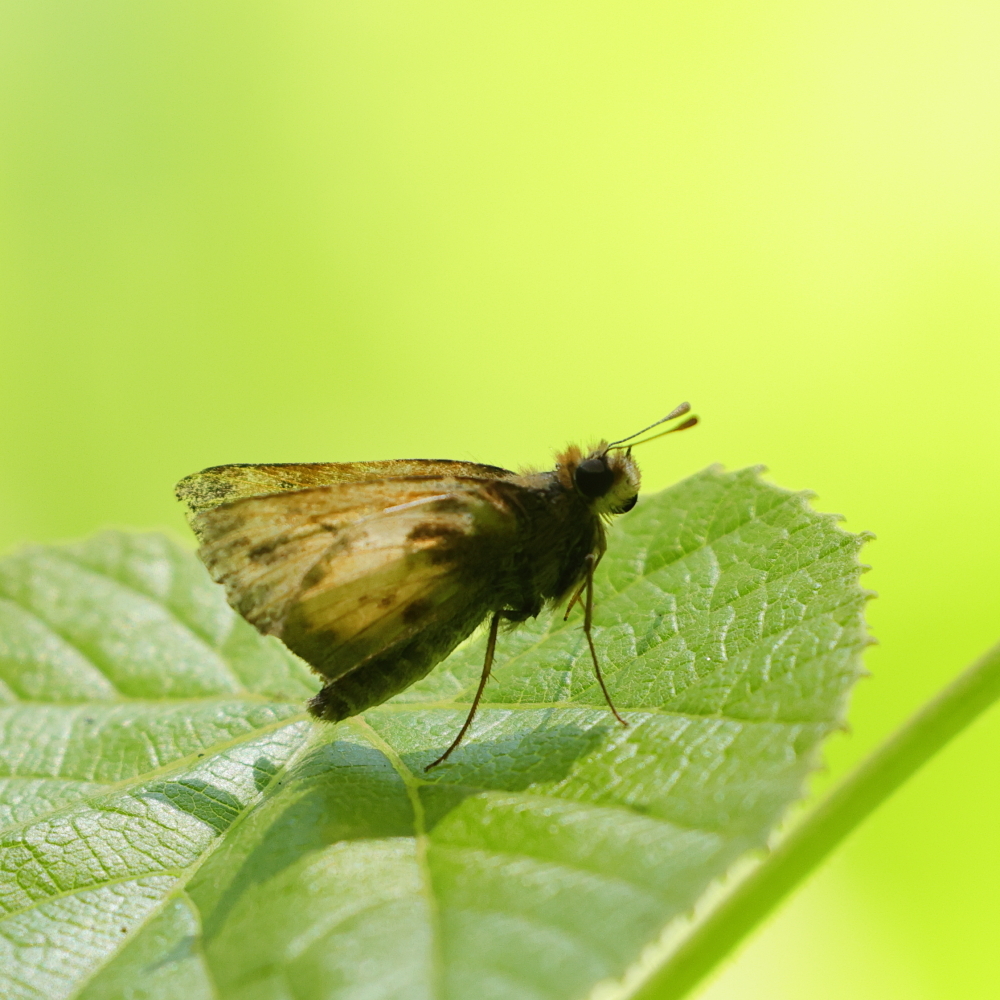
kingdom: Animalia
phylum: Arthropoda
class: Insecta
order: Lepidoptera
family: Hesperiidae
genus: Lon
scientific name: Lon zabulon
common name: Zabulon skipper
